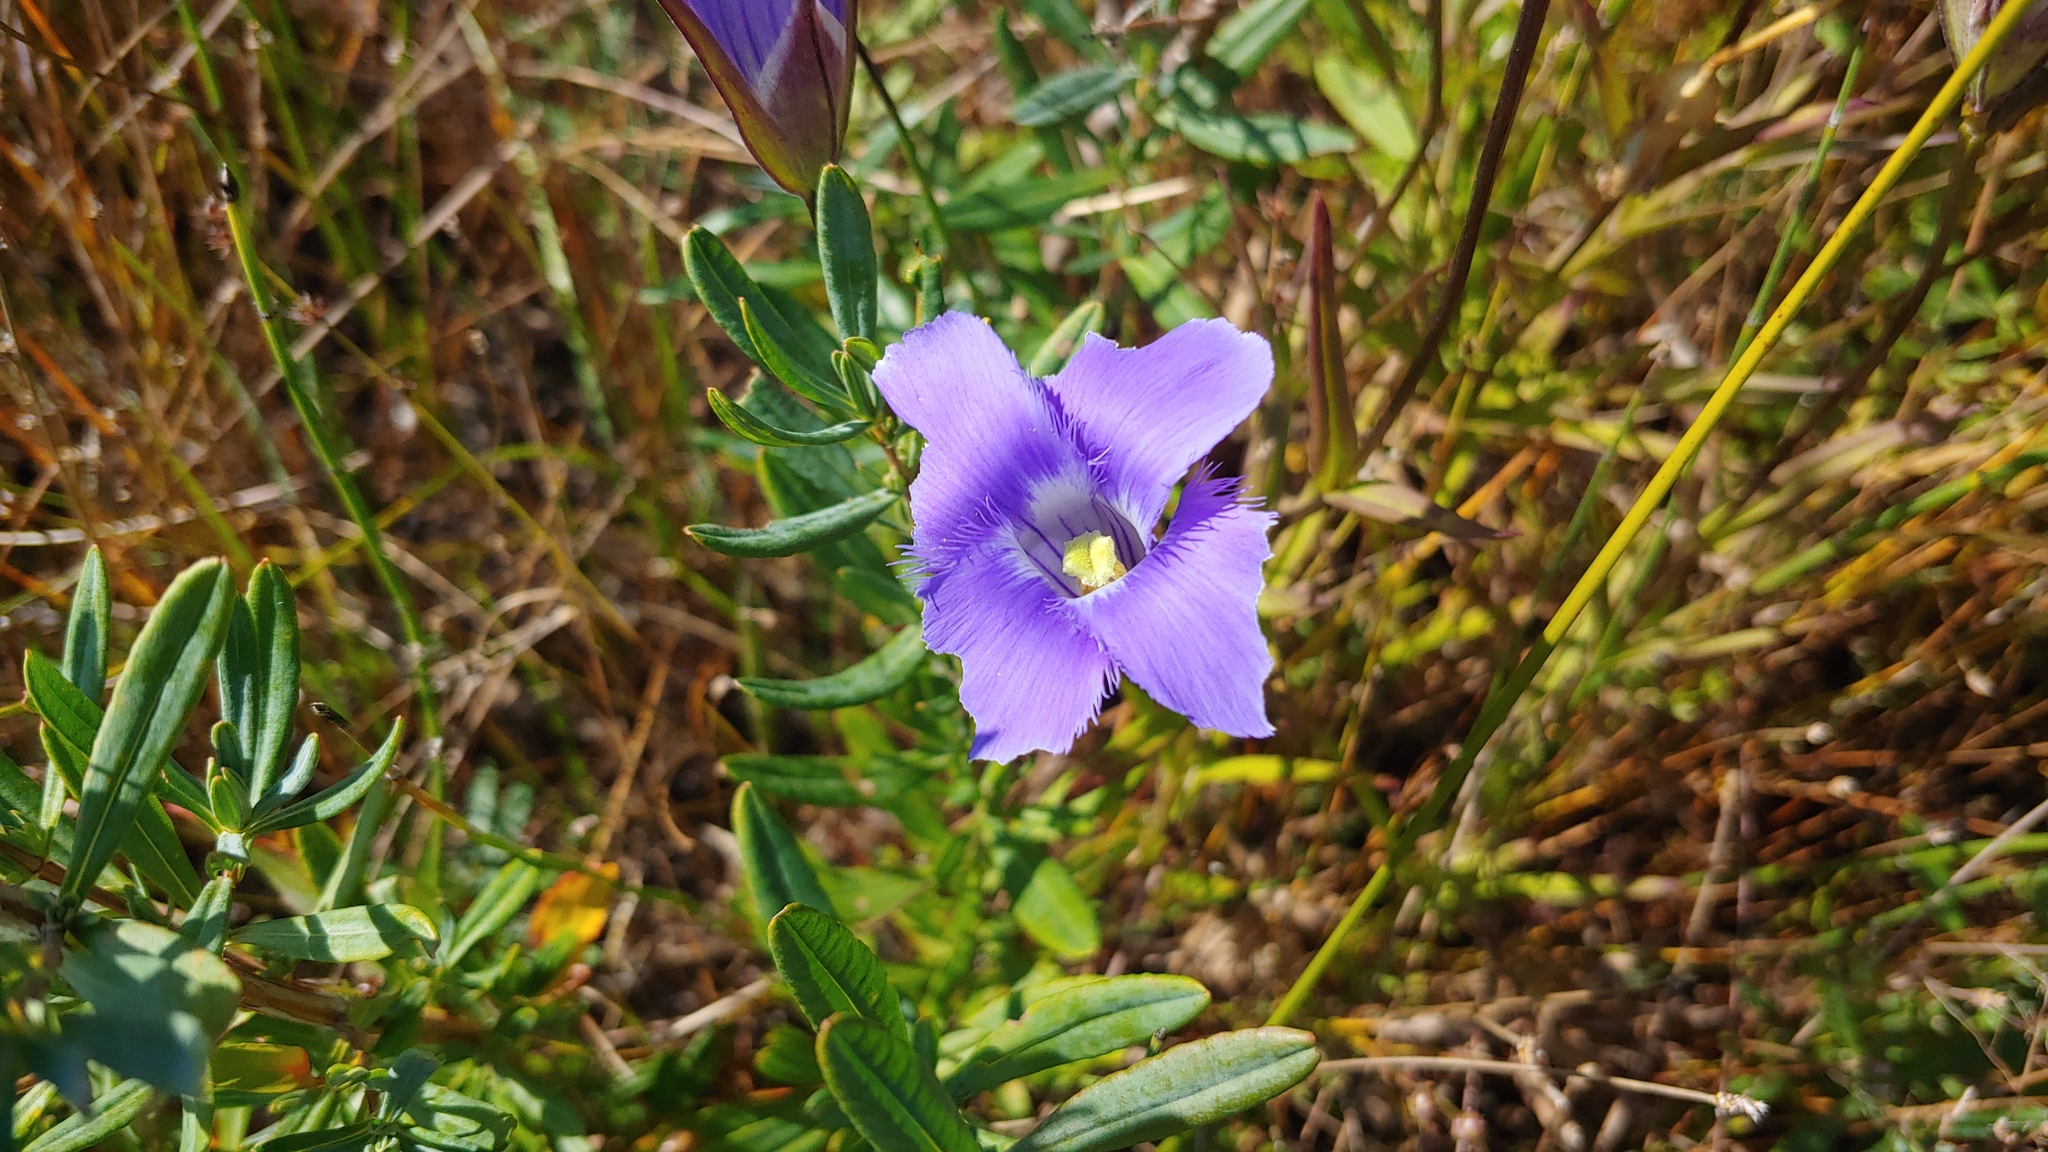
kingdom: Plantae
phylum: Tracheophyta
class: Magnoliopsida
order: Gentianales
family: Gentianaceae
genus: Gentianopsis
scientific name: Gentianopsis crinita
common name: Fringed-gentian
